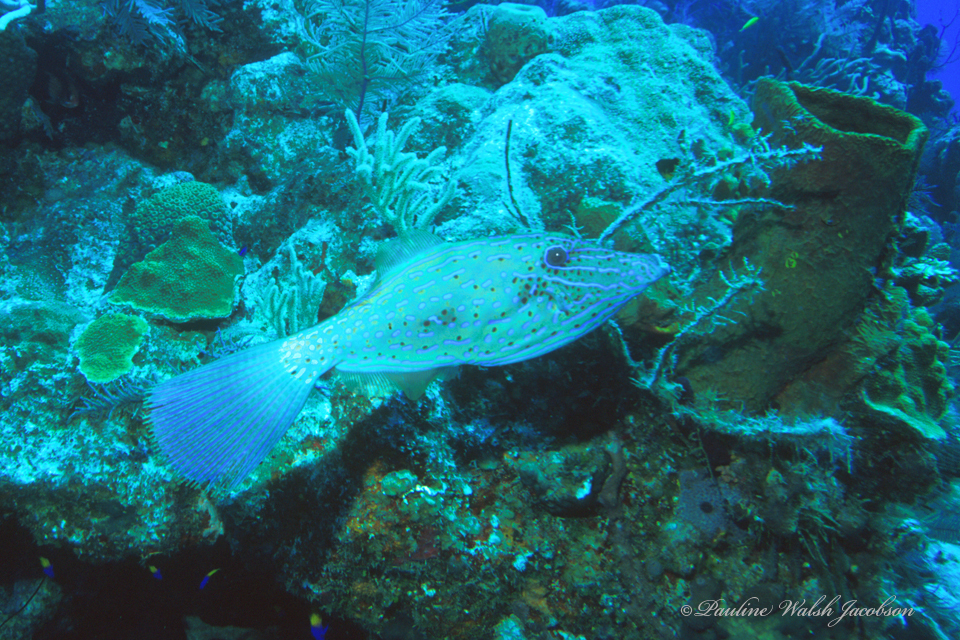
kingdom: Animalia
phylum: Chordata
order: Tetraodontiformes
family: Monacanthidae
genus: Aluterus
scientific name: Aluterus scriptus
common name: Scribbled leatherjacket filefish
